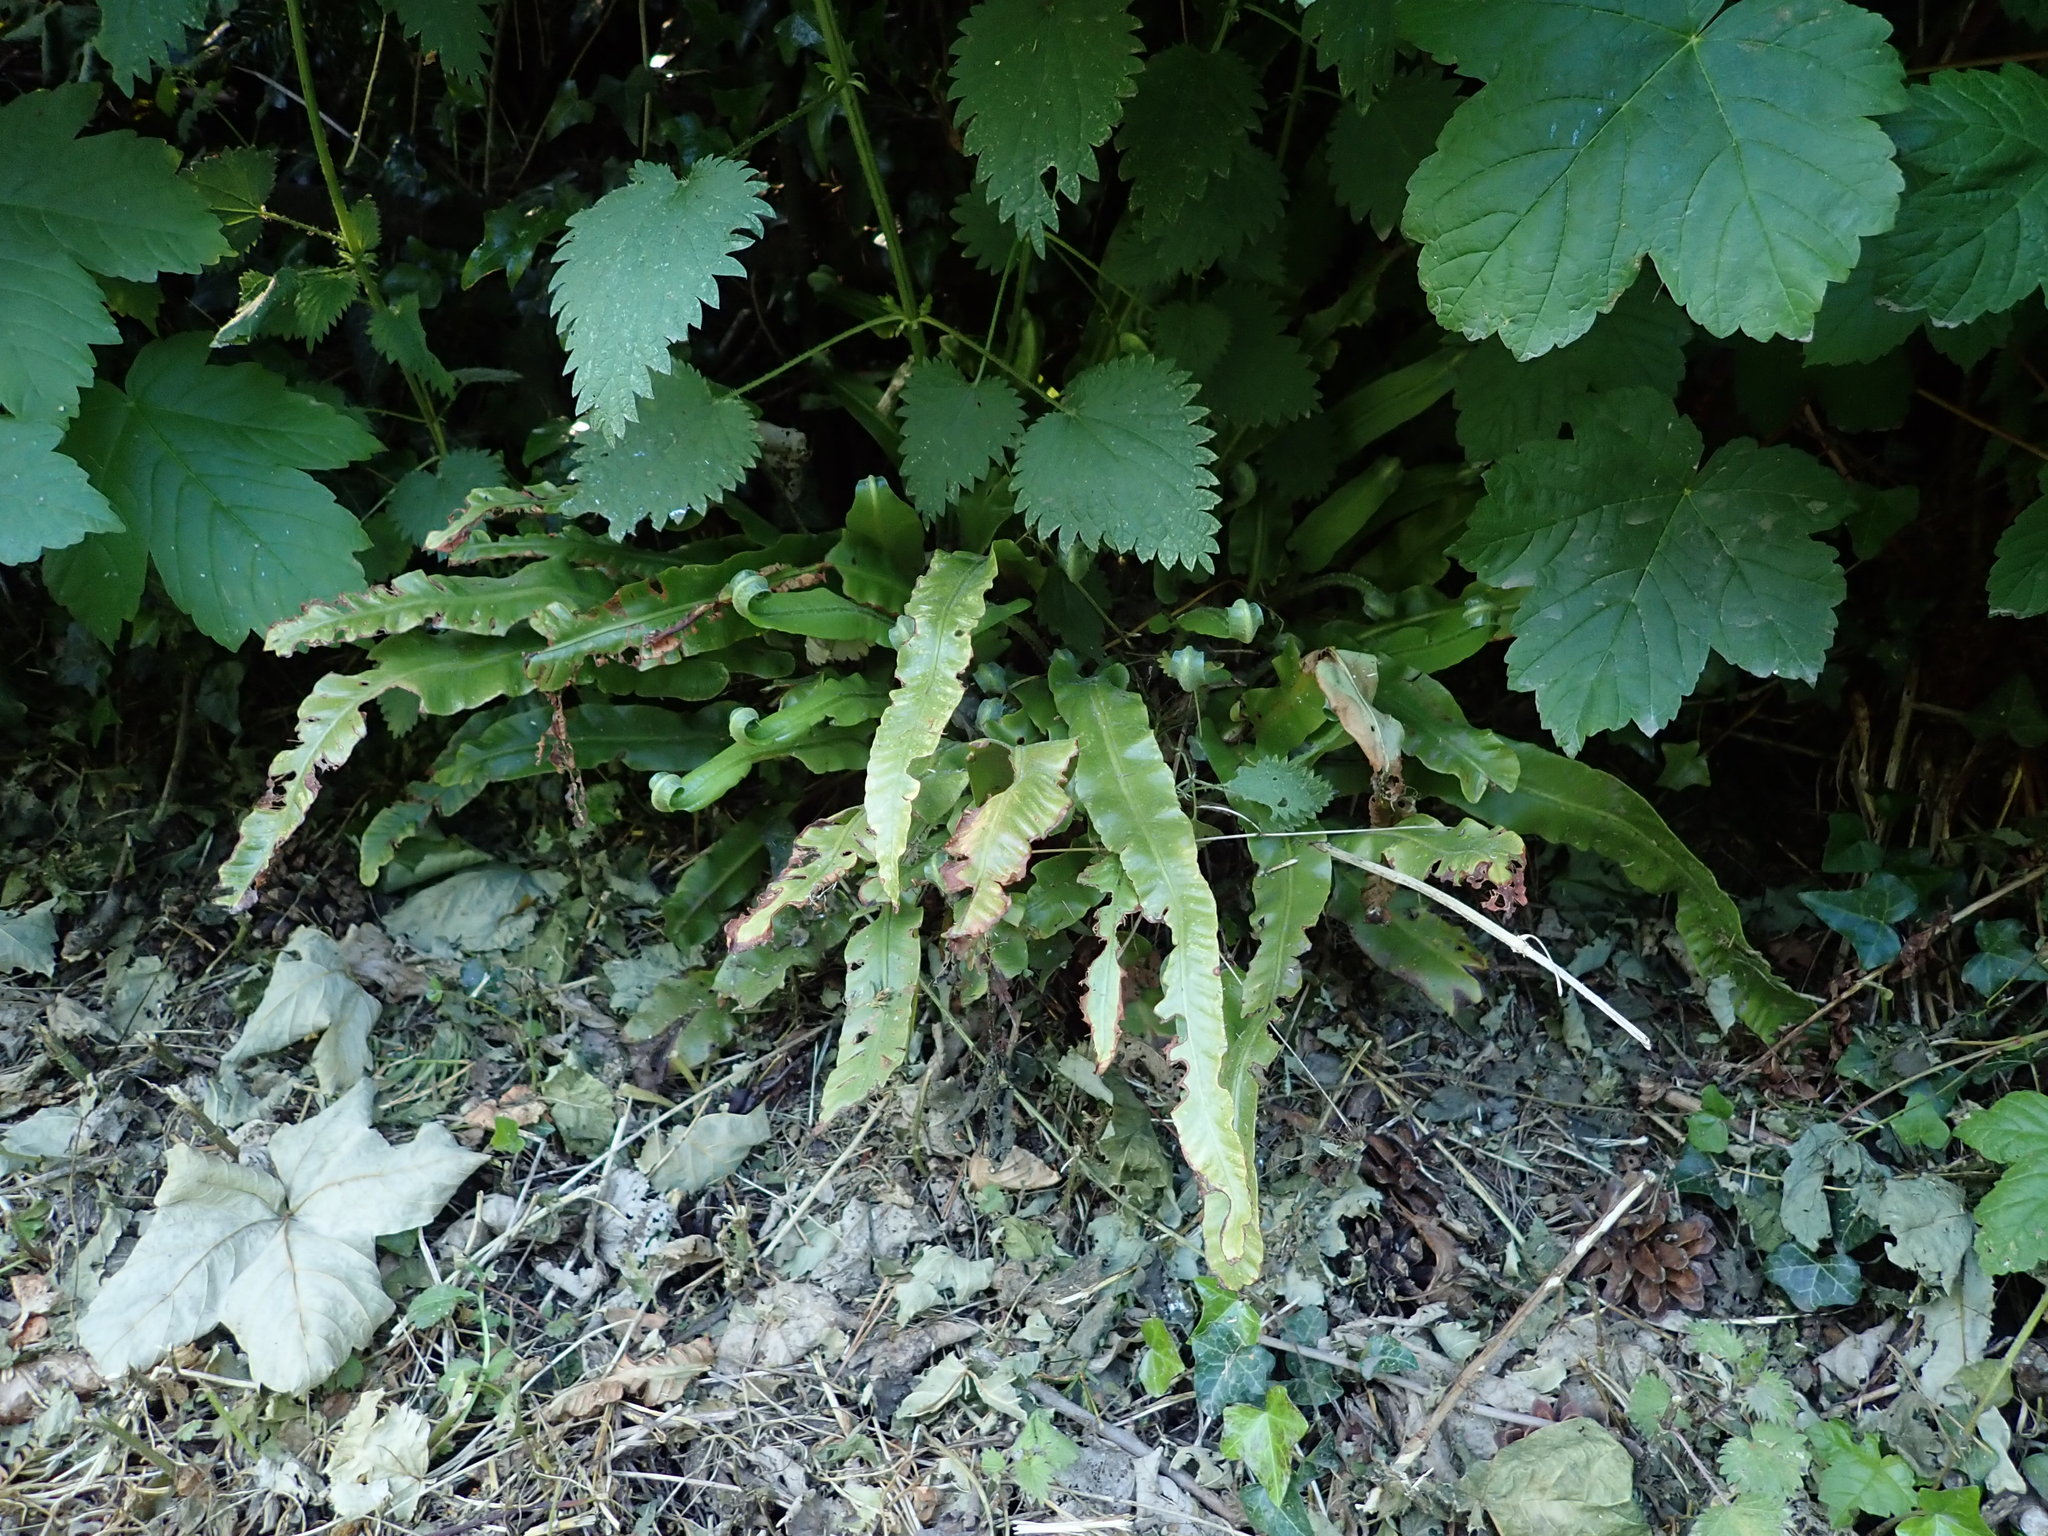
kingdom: Plantae
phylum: Tracheophyta
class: Polypodiopsida
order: Polypodiales
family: Aspleniaceae
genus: Asplenium
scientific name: Asplenium scolopendrium
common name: Hart's-tongue fern
